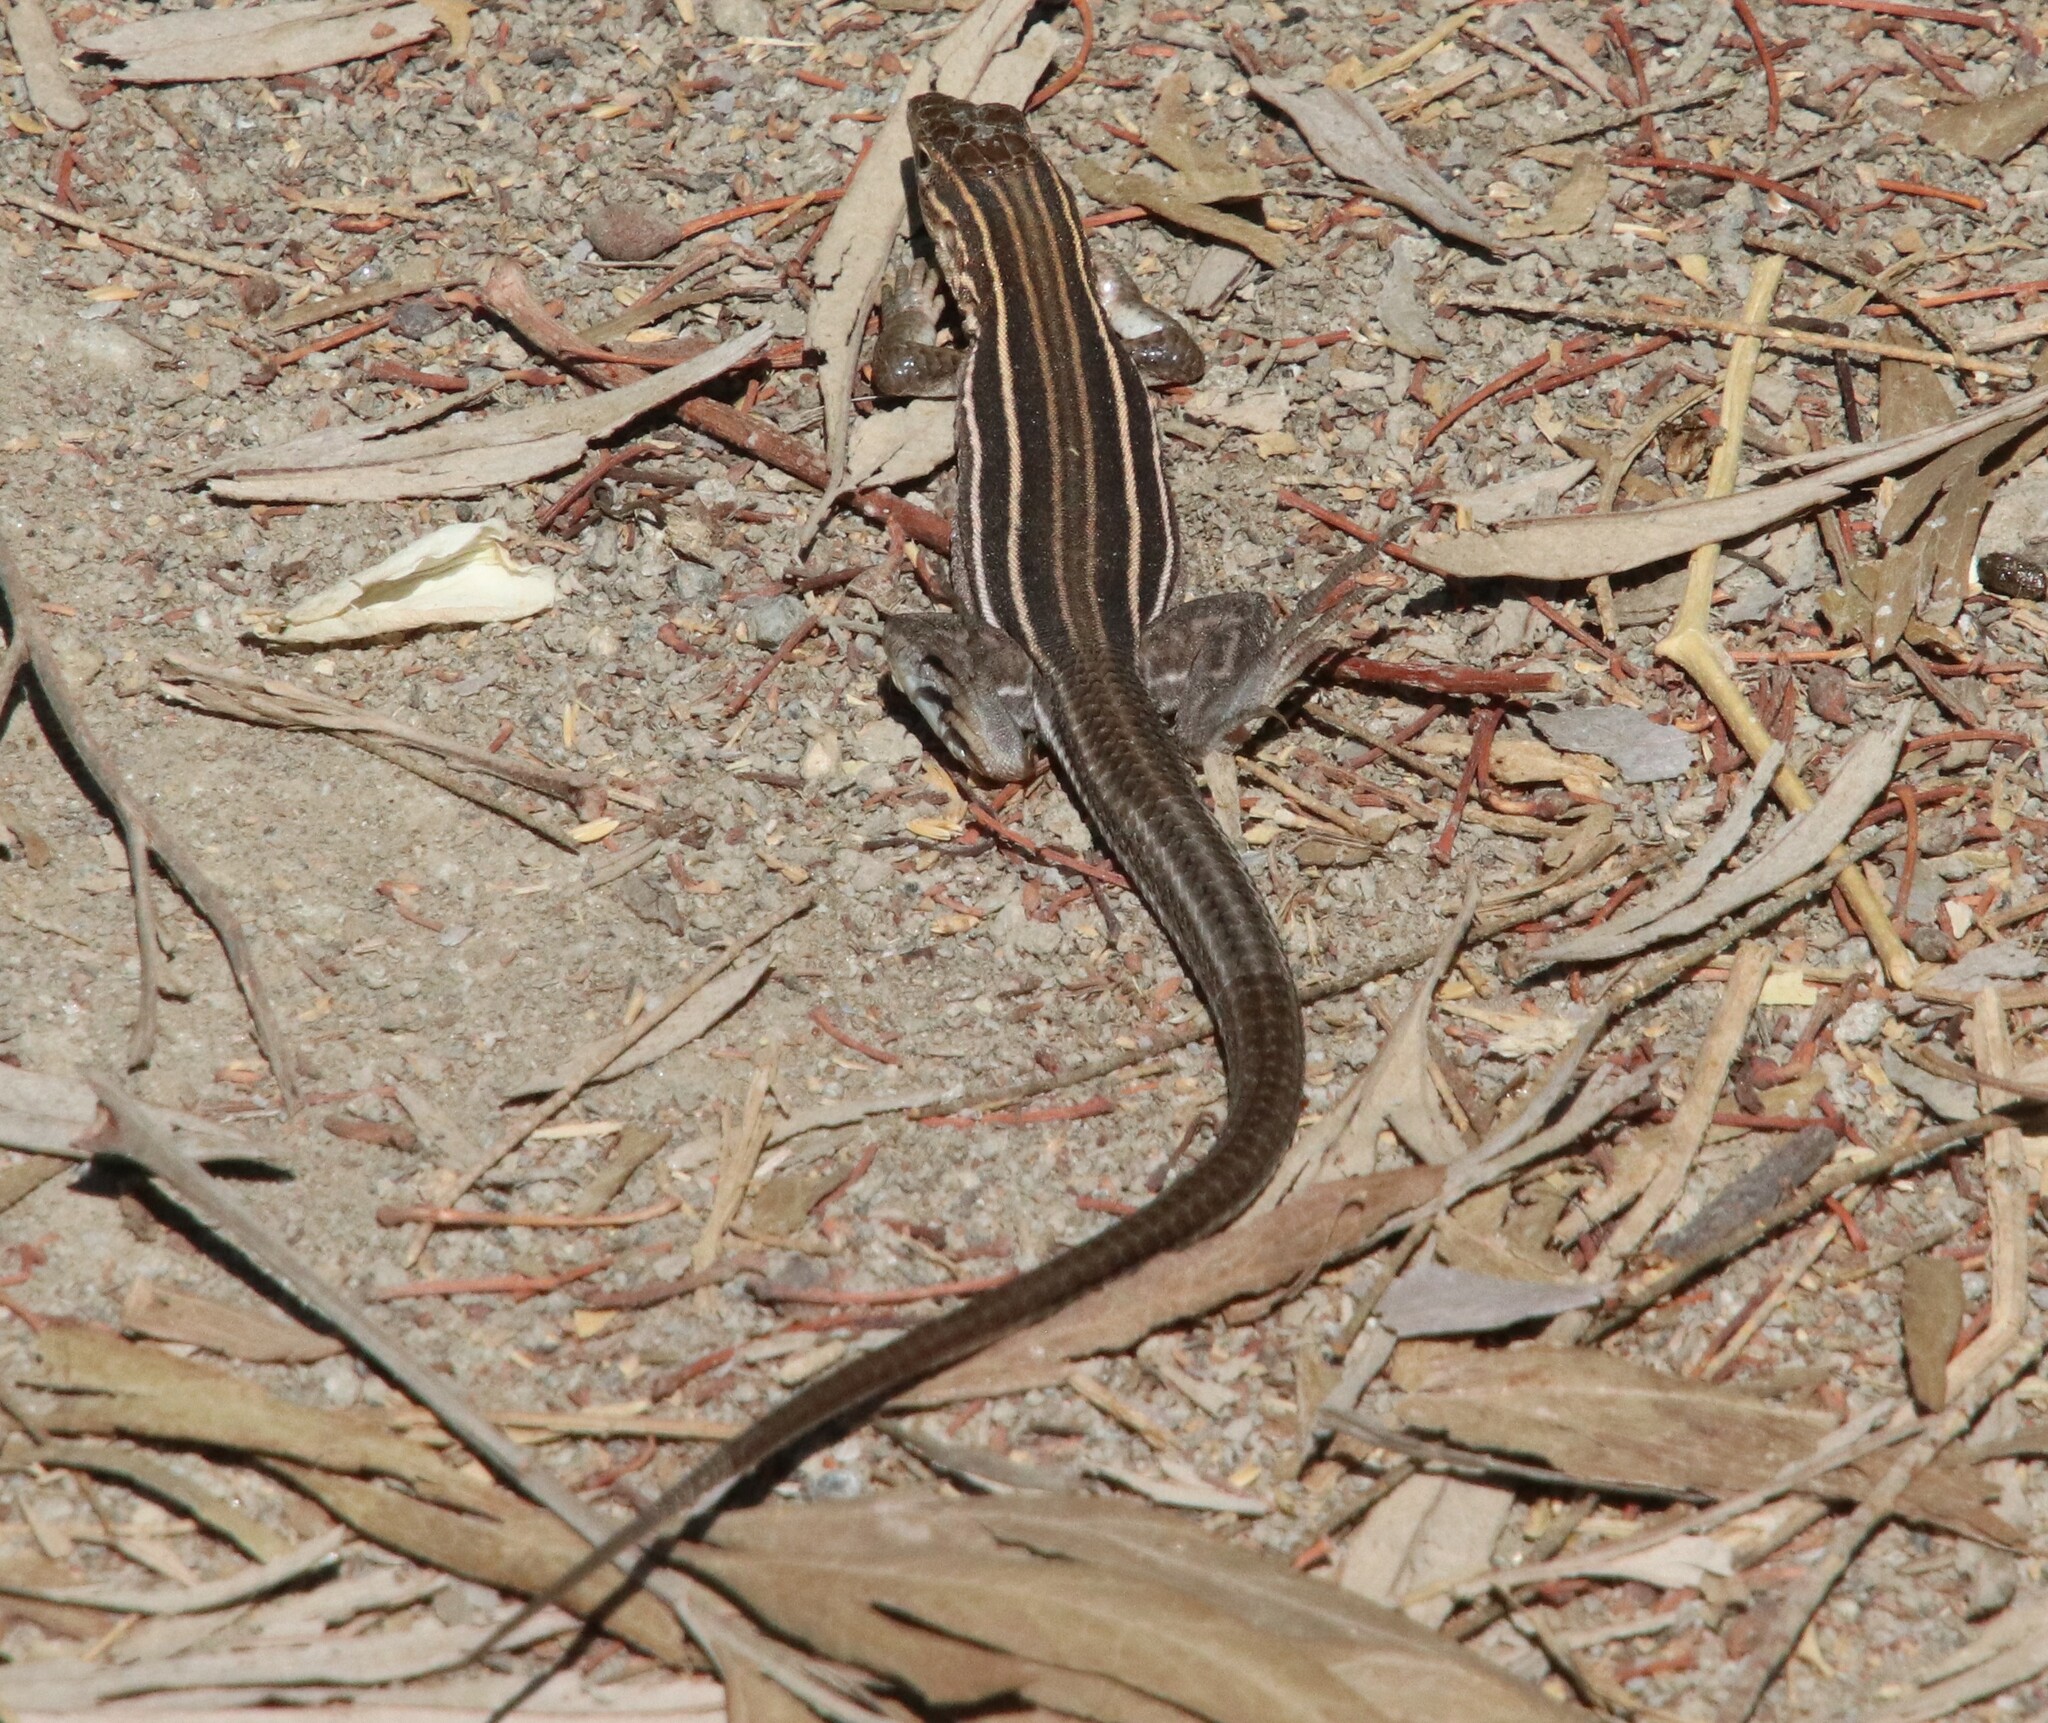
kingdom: Animalia
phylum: Chordata
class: Squamata
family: Teiidae
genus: Aspidoscelis
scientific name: Aspidoscelis hyperythrus
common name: Orange-throated race-runner
